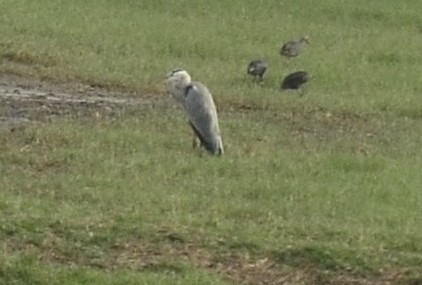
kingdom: Animalia
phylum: Chordata
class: Aves
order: Pelecaniformes
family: Ardeidae
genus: Ardea
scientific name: Ardea cinerea
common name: Grey heron
